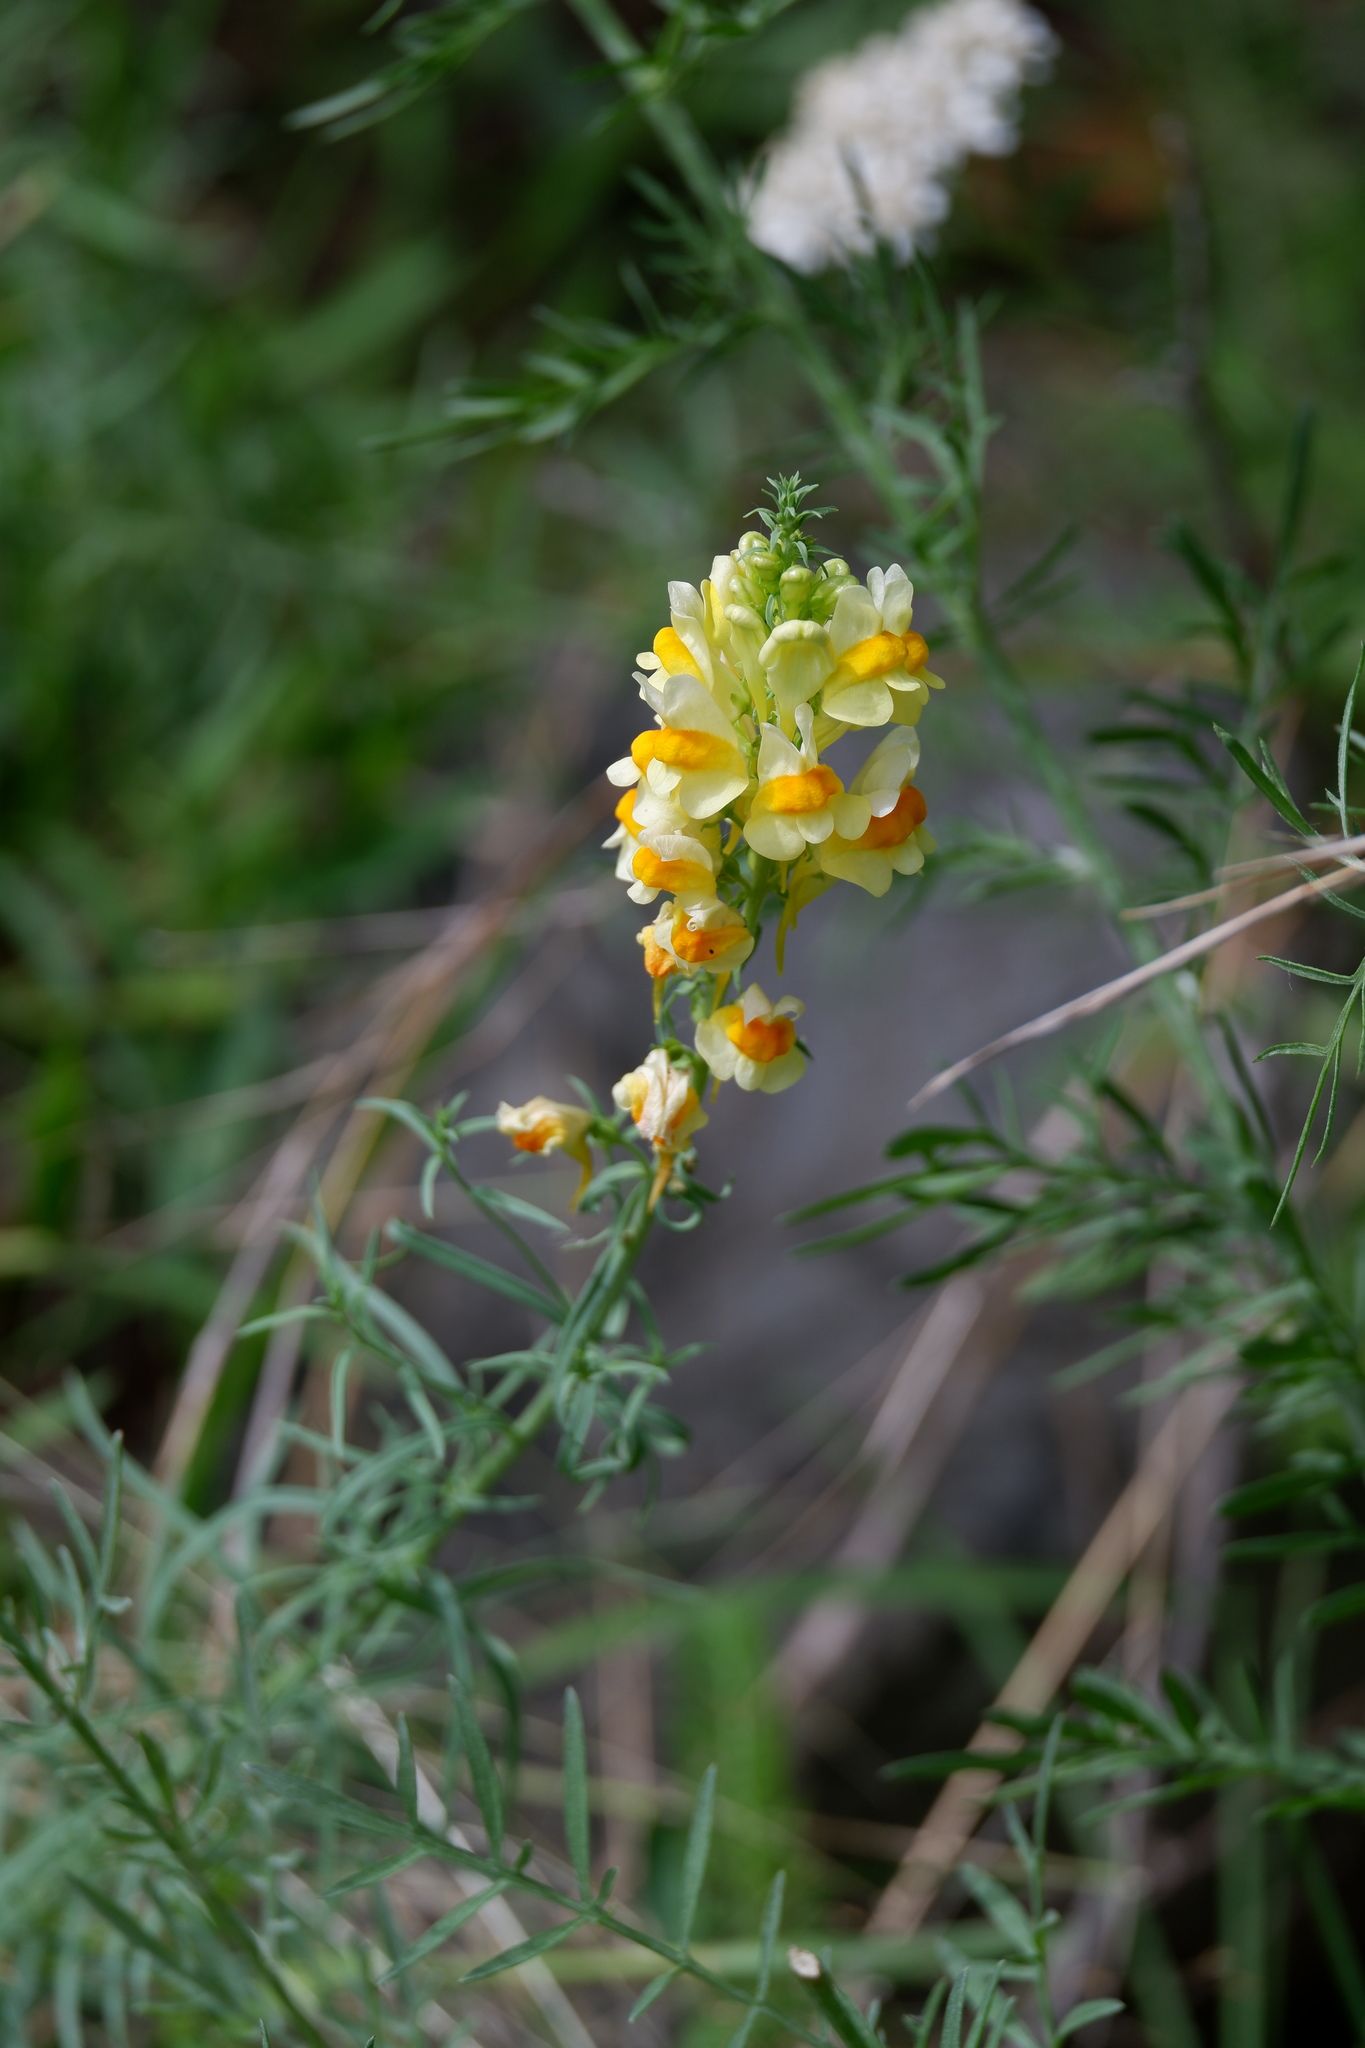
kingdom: Plantae
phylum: Tracheophyta
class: Magnoliopsida
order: Lamiales
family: Plantaginaceae
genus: Linaria
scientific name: Linaria vulgaris
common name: Butter and eggs
